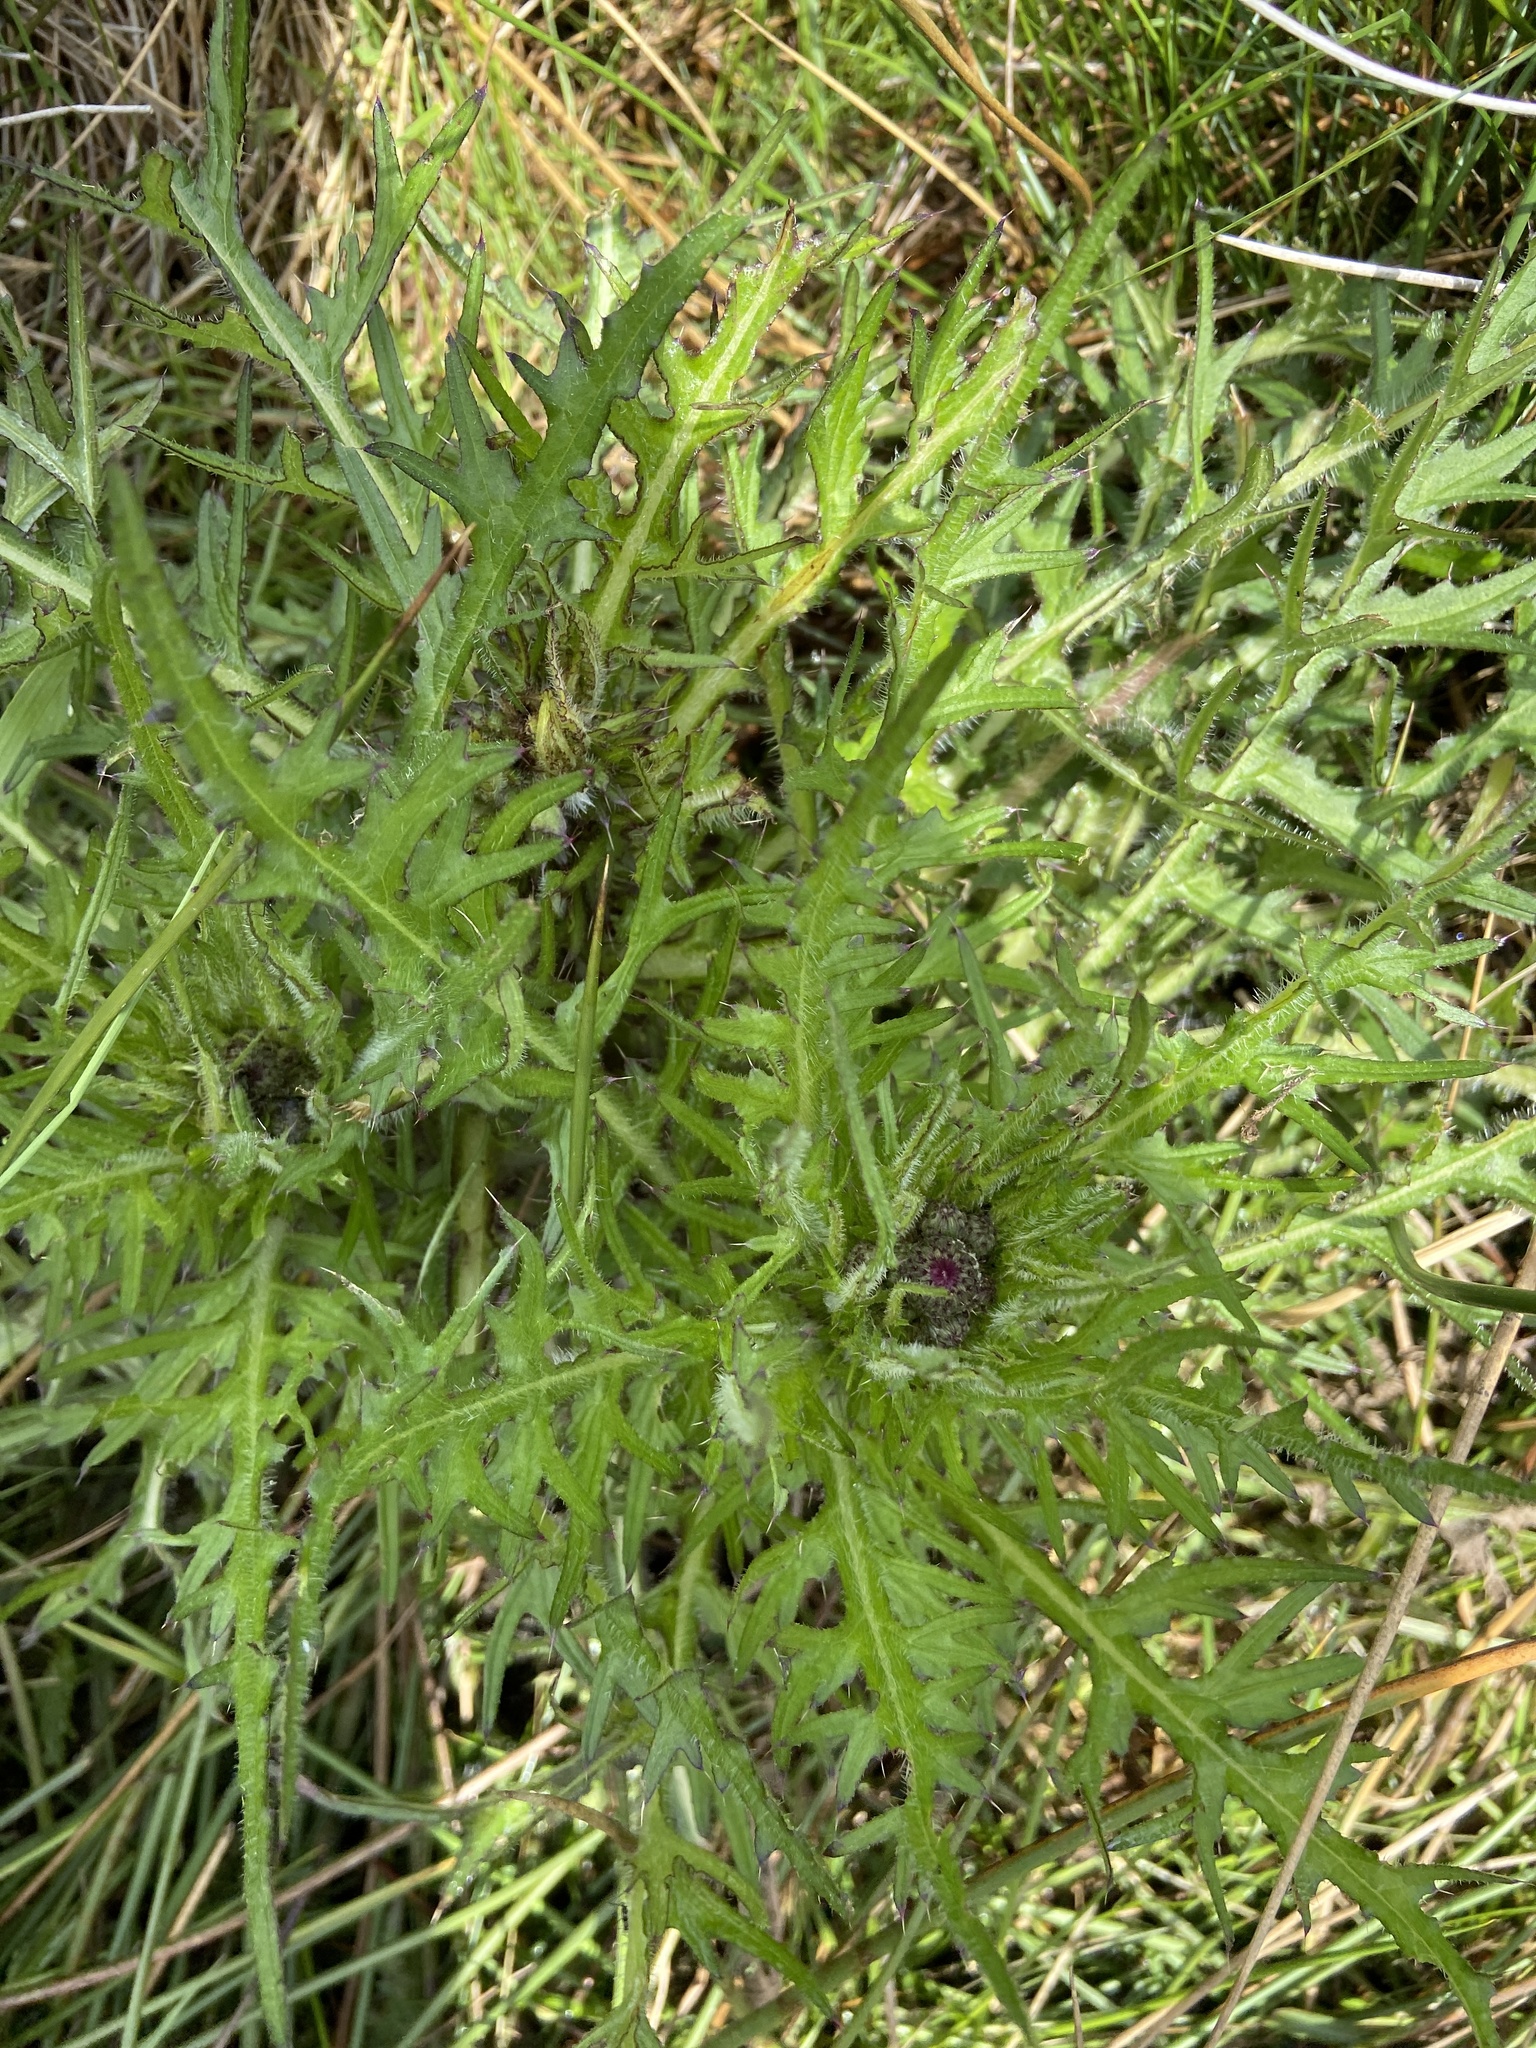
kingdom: Plantae
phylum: Tracheophyta
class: Magnoliopsida
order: Asterales
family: Asteraceae
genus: Cirsium
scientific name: Cirsium palustre
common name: Marsh thistle
